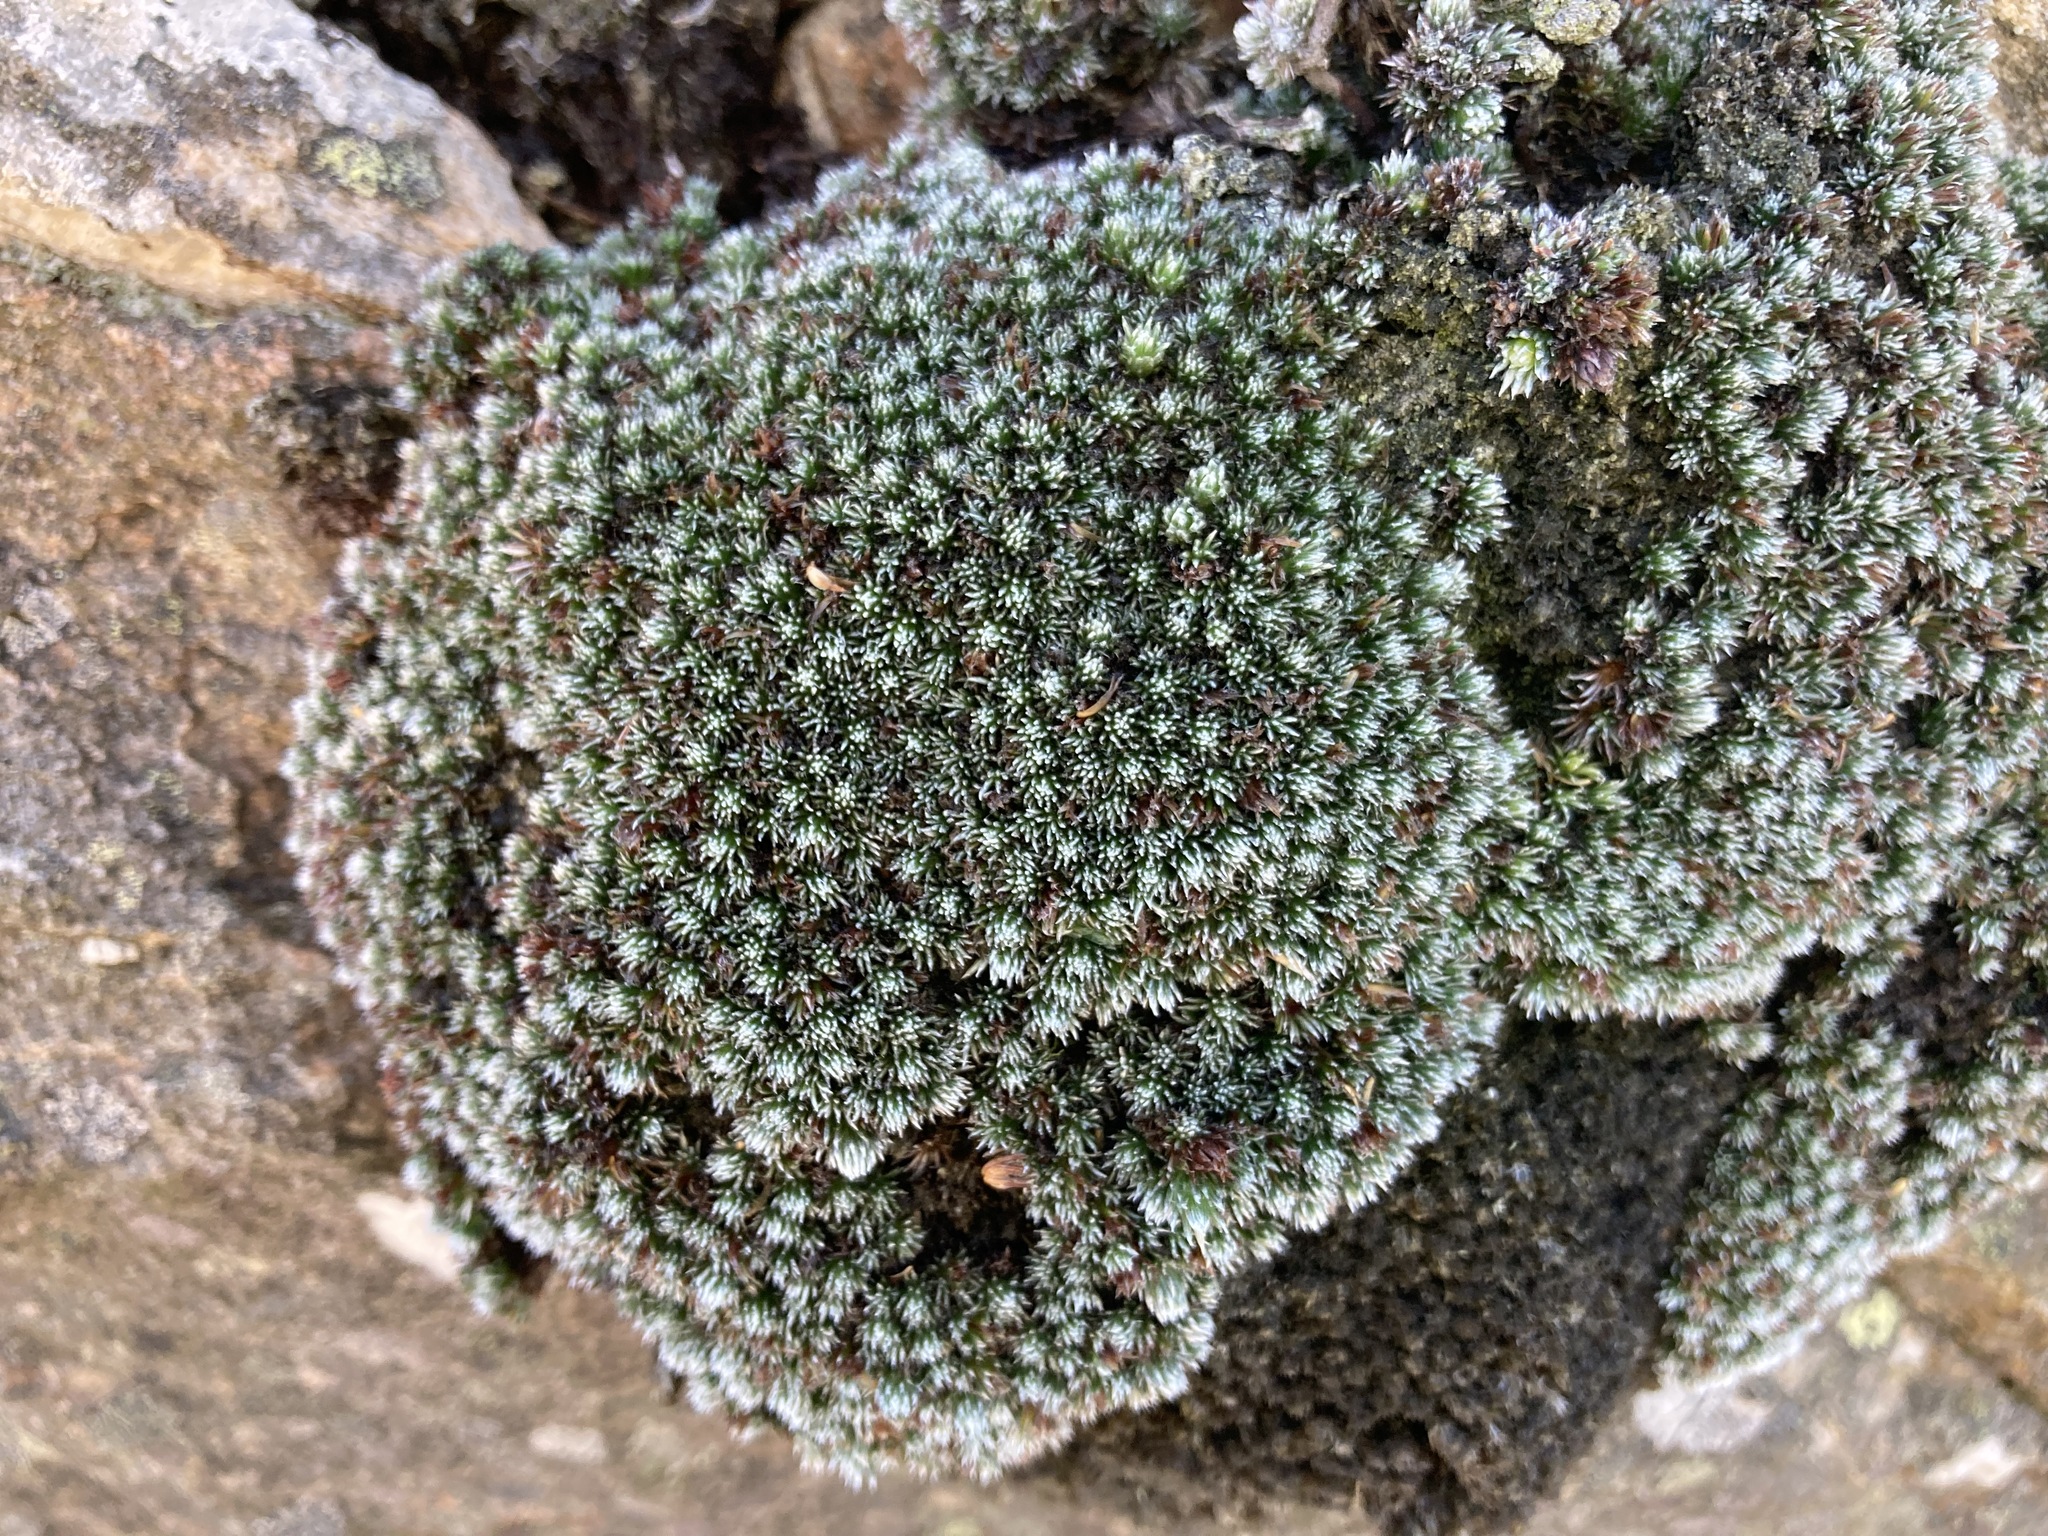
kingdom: Plantae
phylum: Tracheophyta
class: Magnoliopsida
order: Asterales
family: Asteraceae
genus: Muscosomorphe
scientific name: Muscosomorphe aretioides
